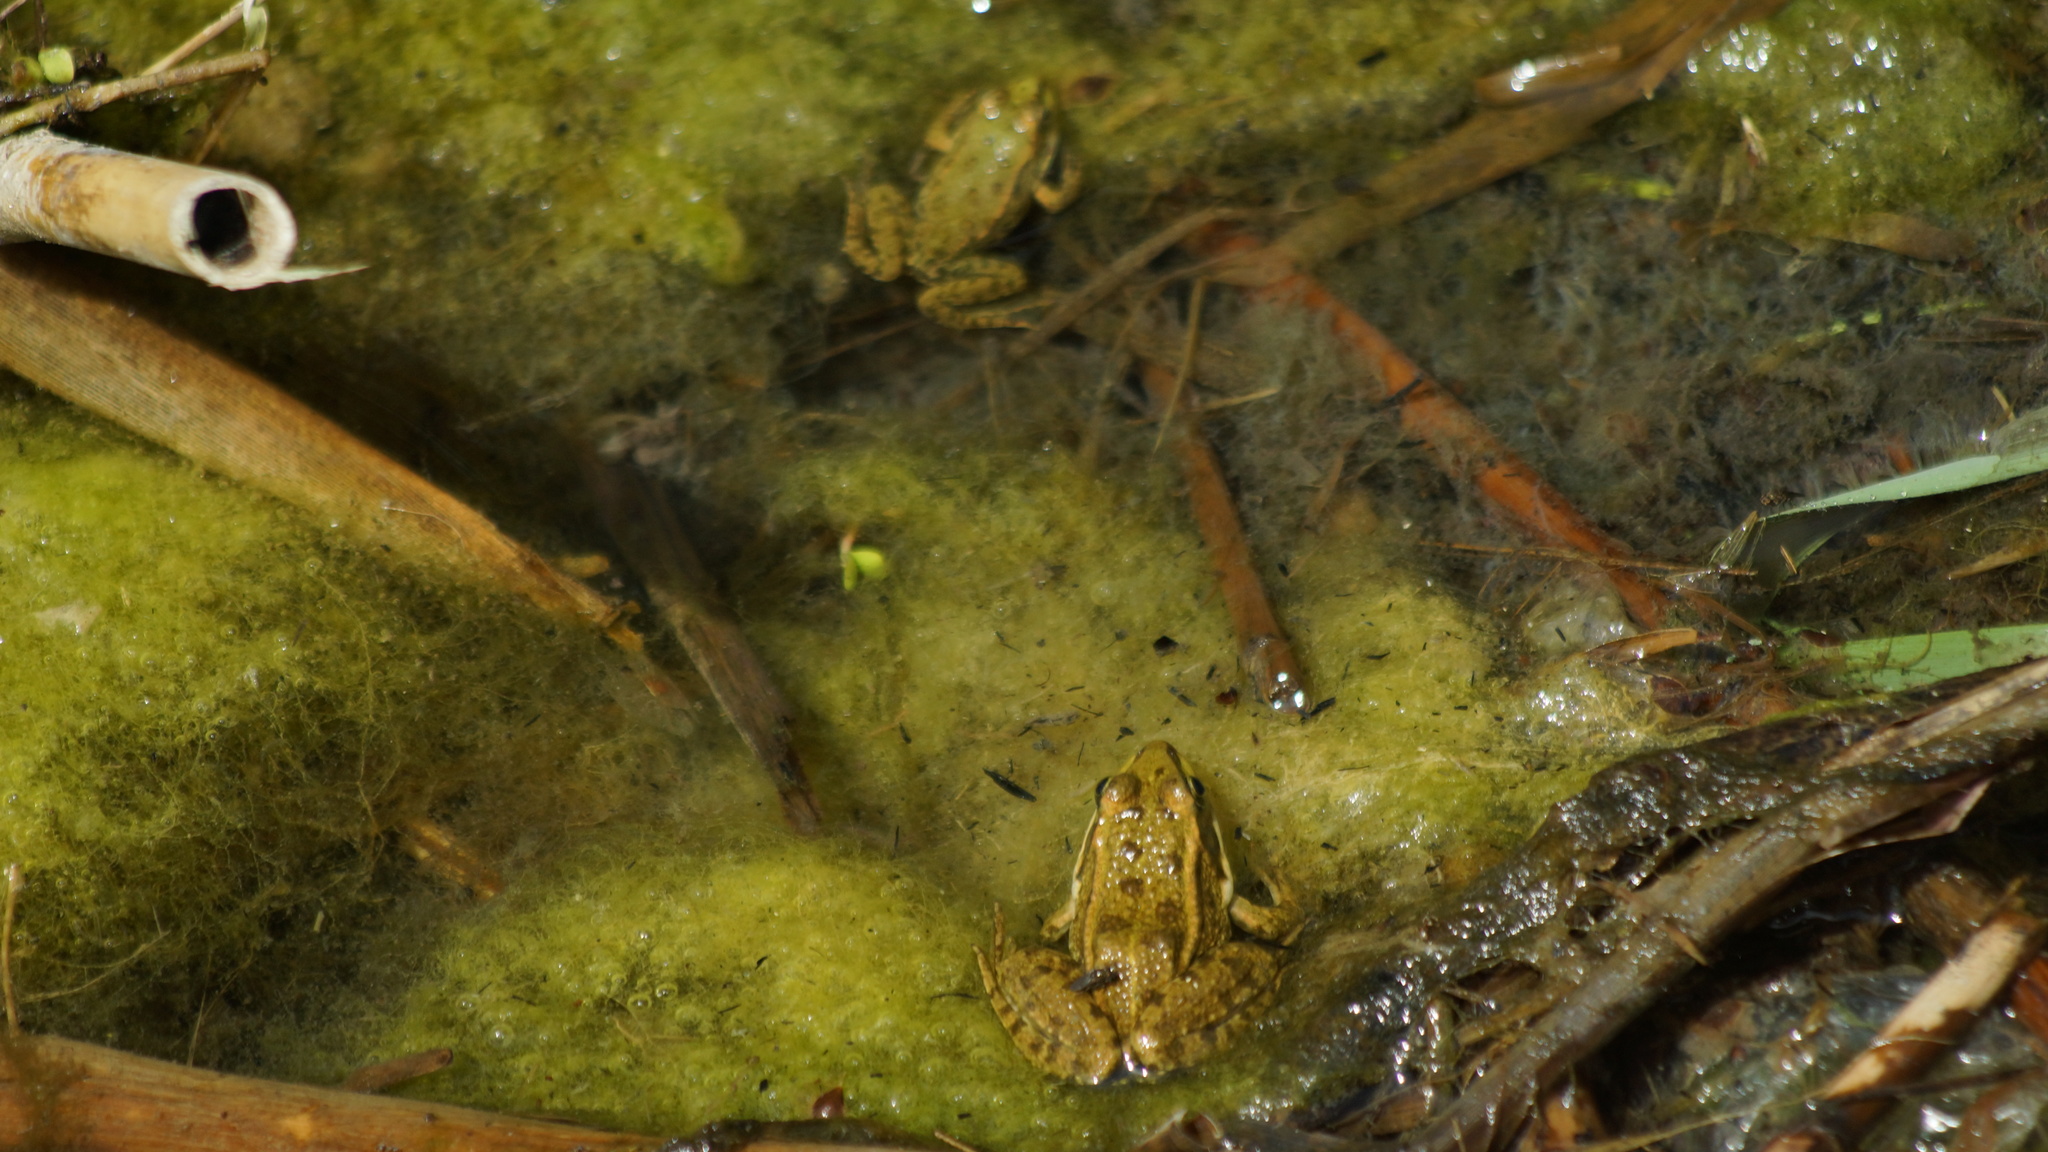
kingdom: Animalia
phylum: Chordata
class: Amphibia
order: Anura
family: Ranidae
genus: Pelophylax
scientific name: Pelophylax ridibundus
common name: Marsh frog
